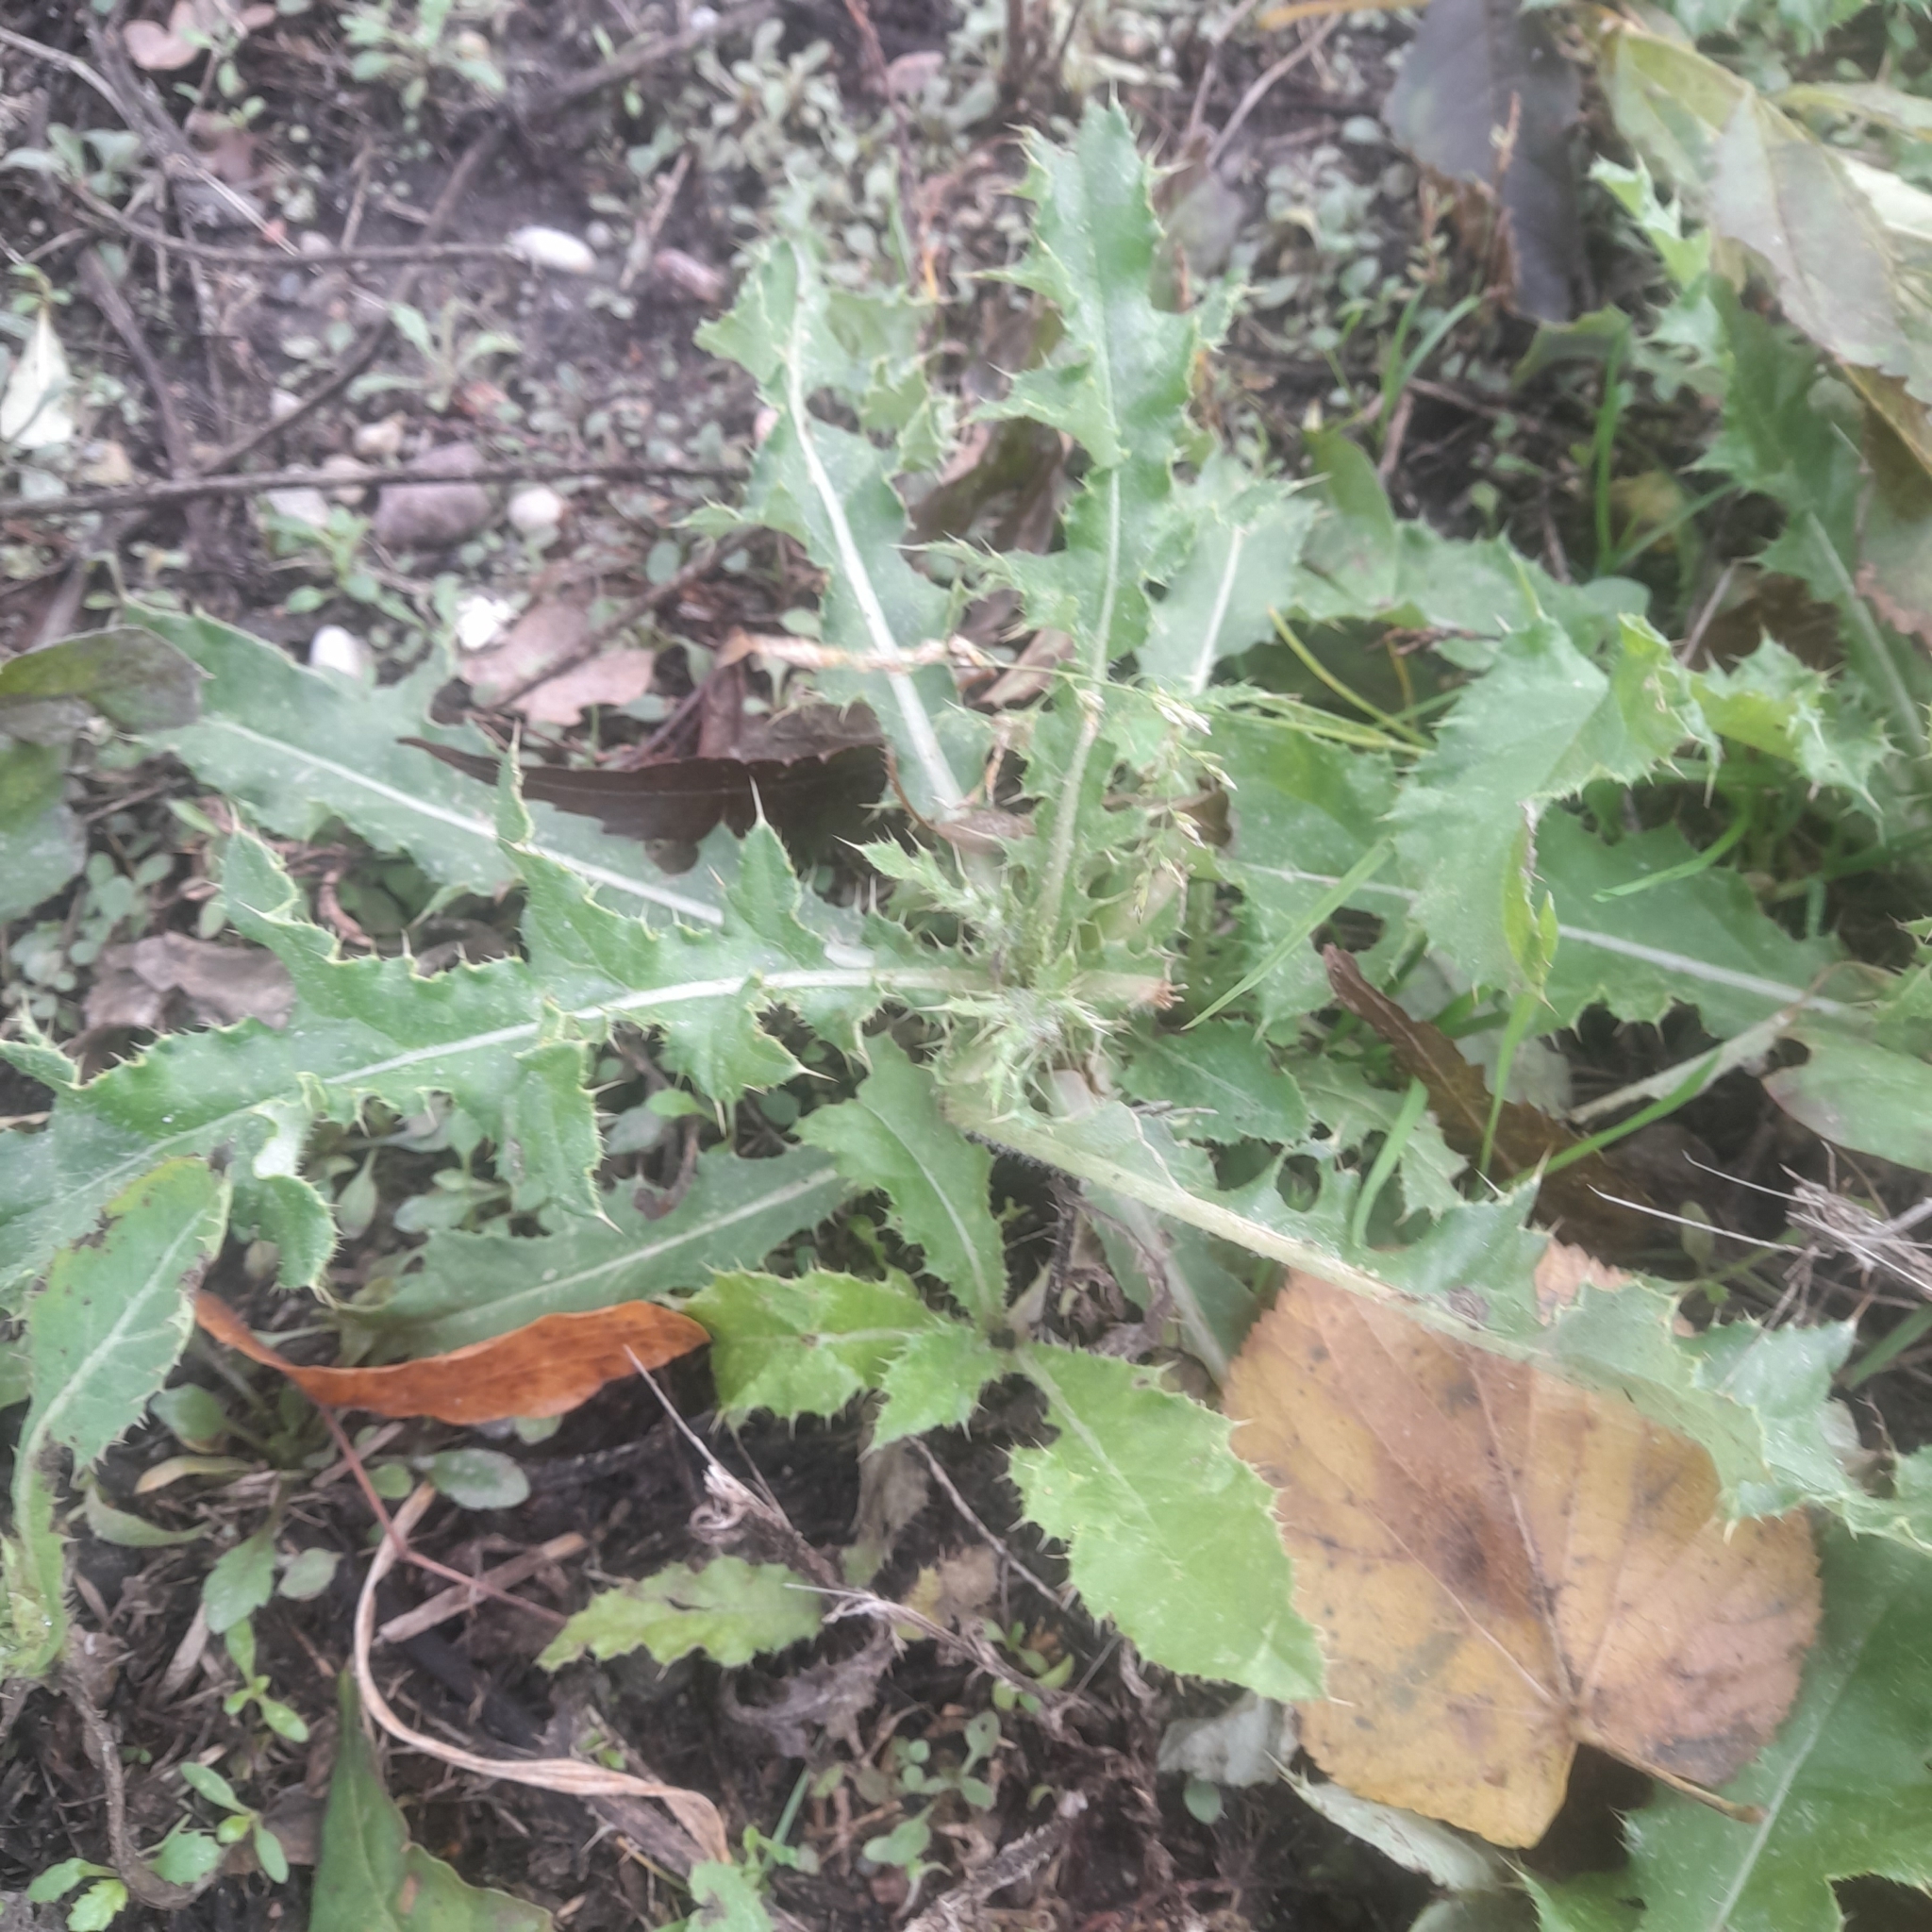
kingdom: Plantae
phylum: Tracheophyta
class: Magnoliopsida
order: Asterales
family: Asteraceae
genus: Cirsium
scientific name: Cirsium arvense
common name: Creeping thistle
